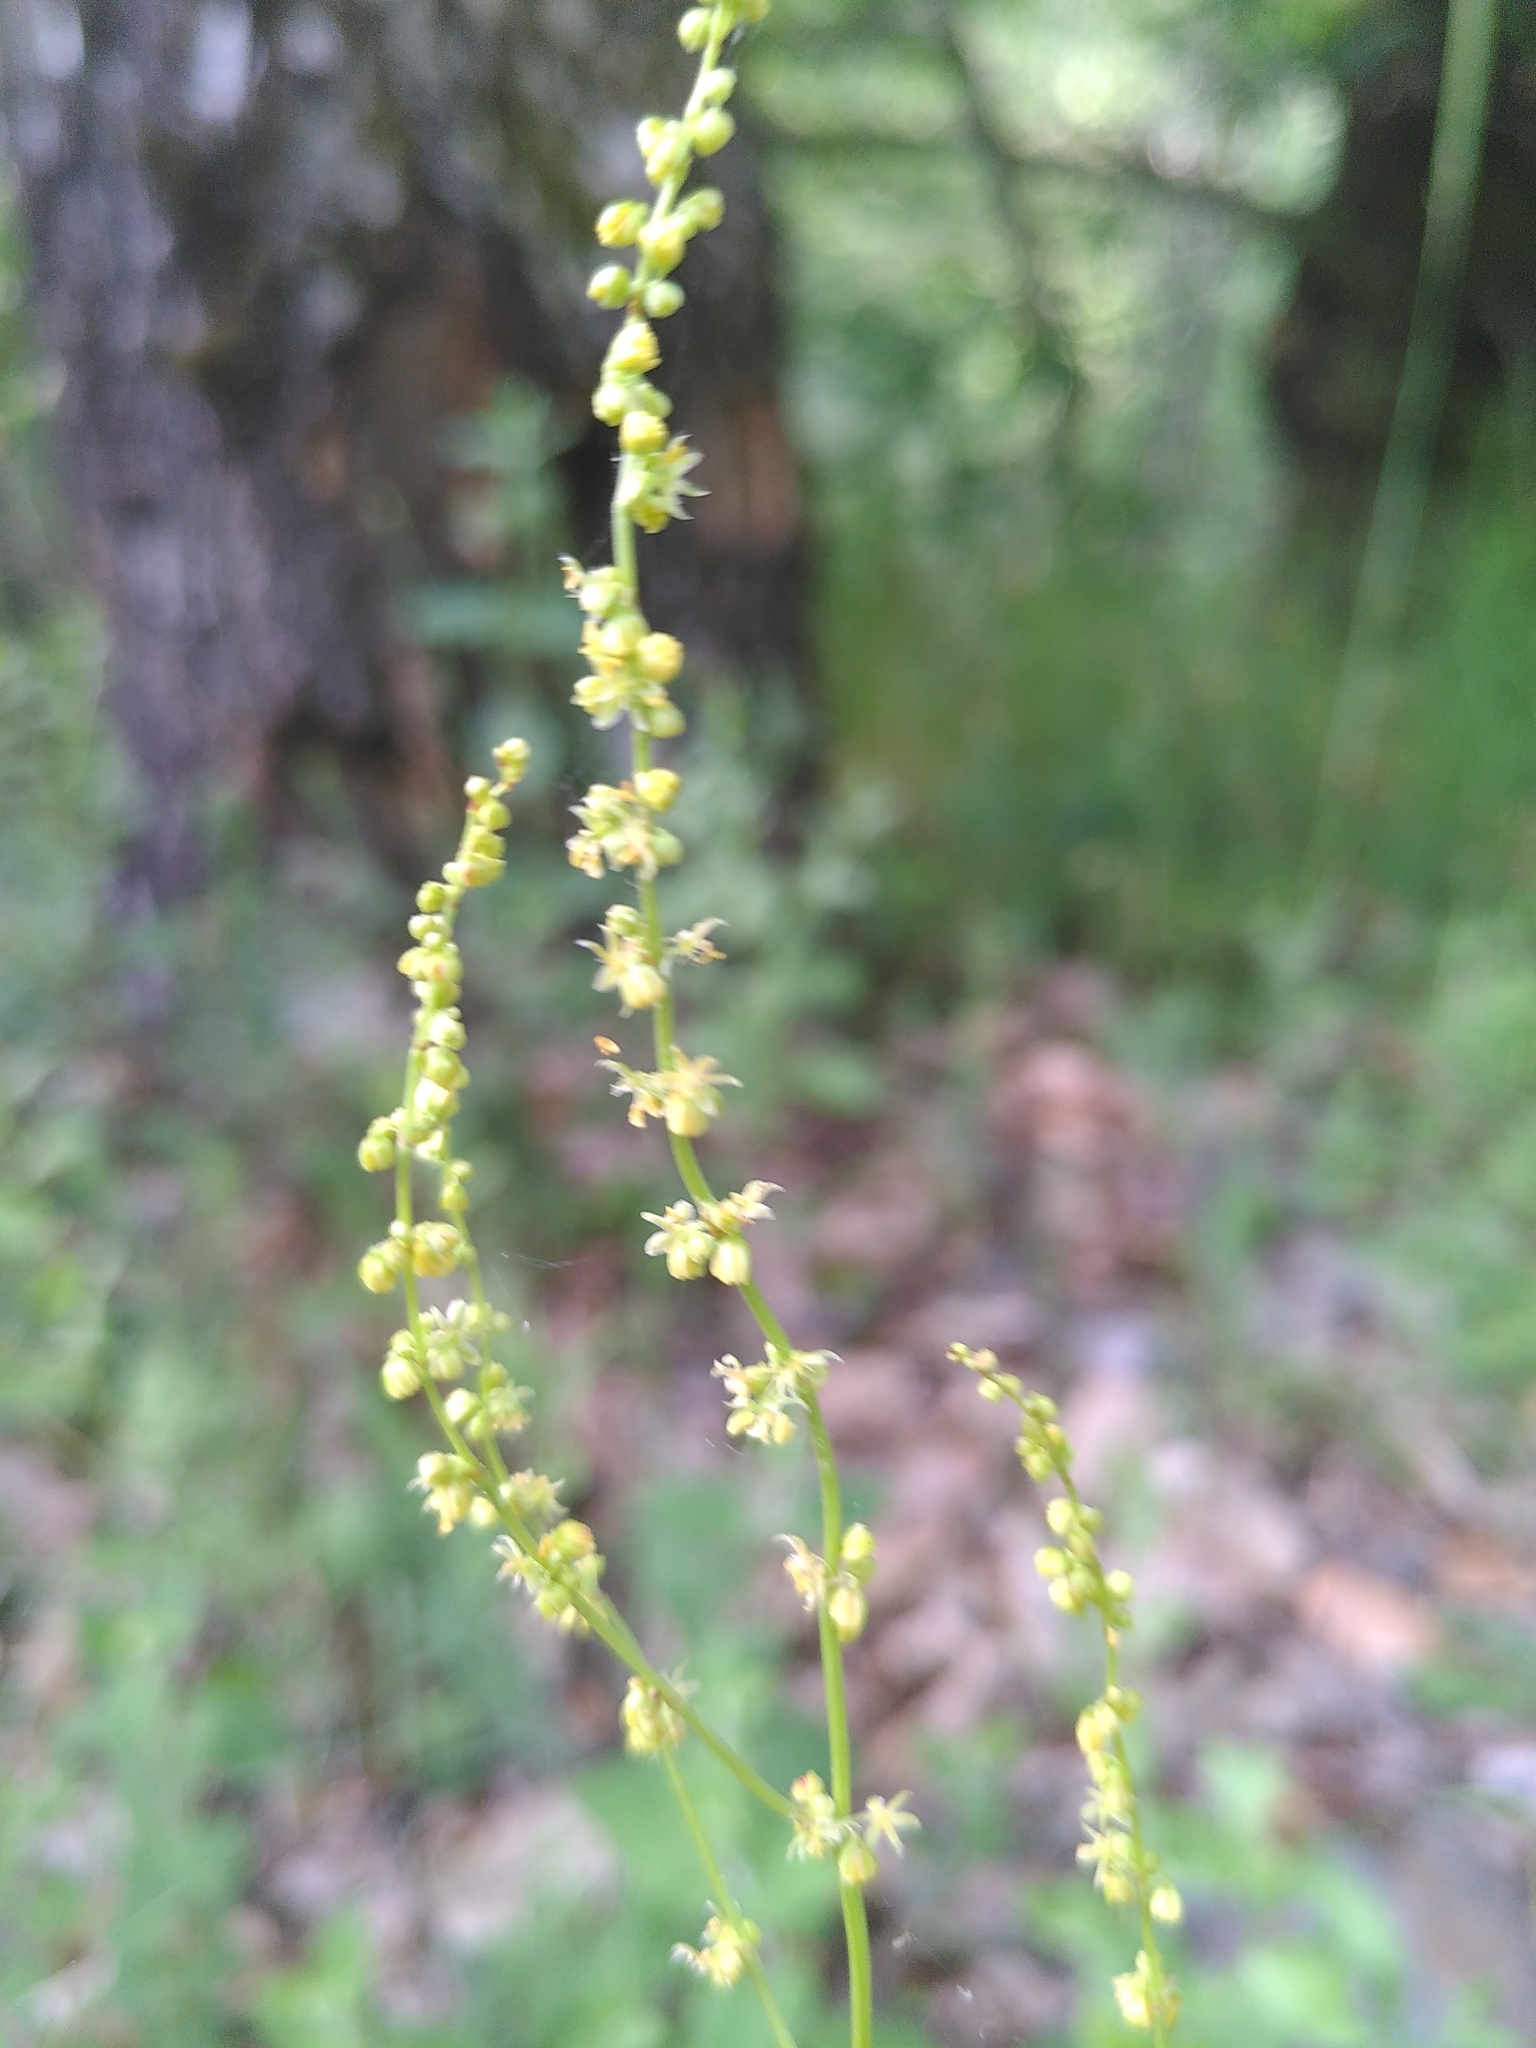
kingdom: Plantae
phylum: Tracheophyta
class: Magnoliopsida
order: Caryophyllales
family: Polygonaceae
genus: Rumex
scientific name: Rumex acetosella
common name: Common sheep sorrel
